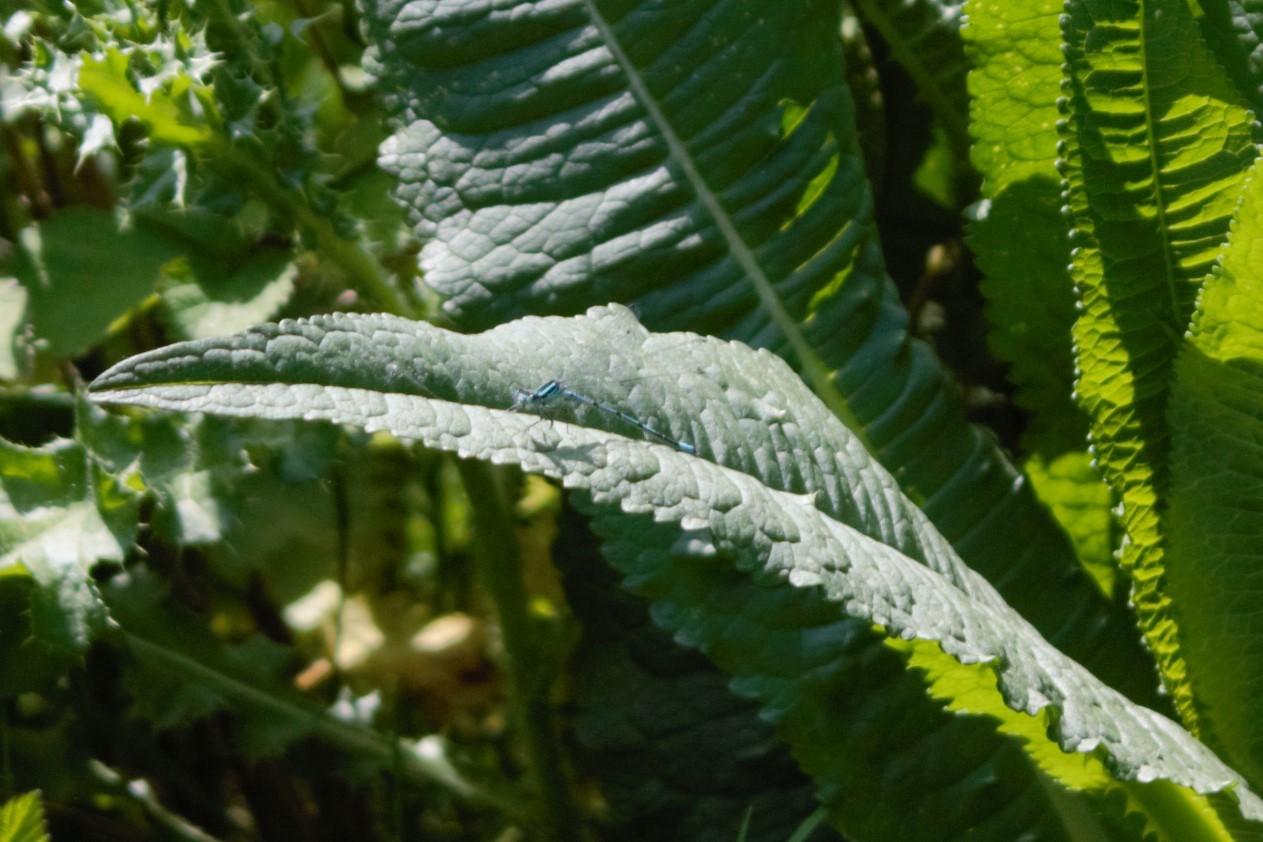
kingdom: Animalia
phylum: Arthropoda
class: Insecta
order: Odonata
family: Coenagrionidae
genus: Coenagrion
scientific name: Coenagrion puella
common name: Azure damselfly
